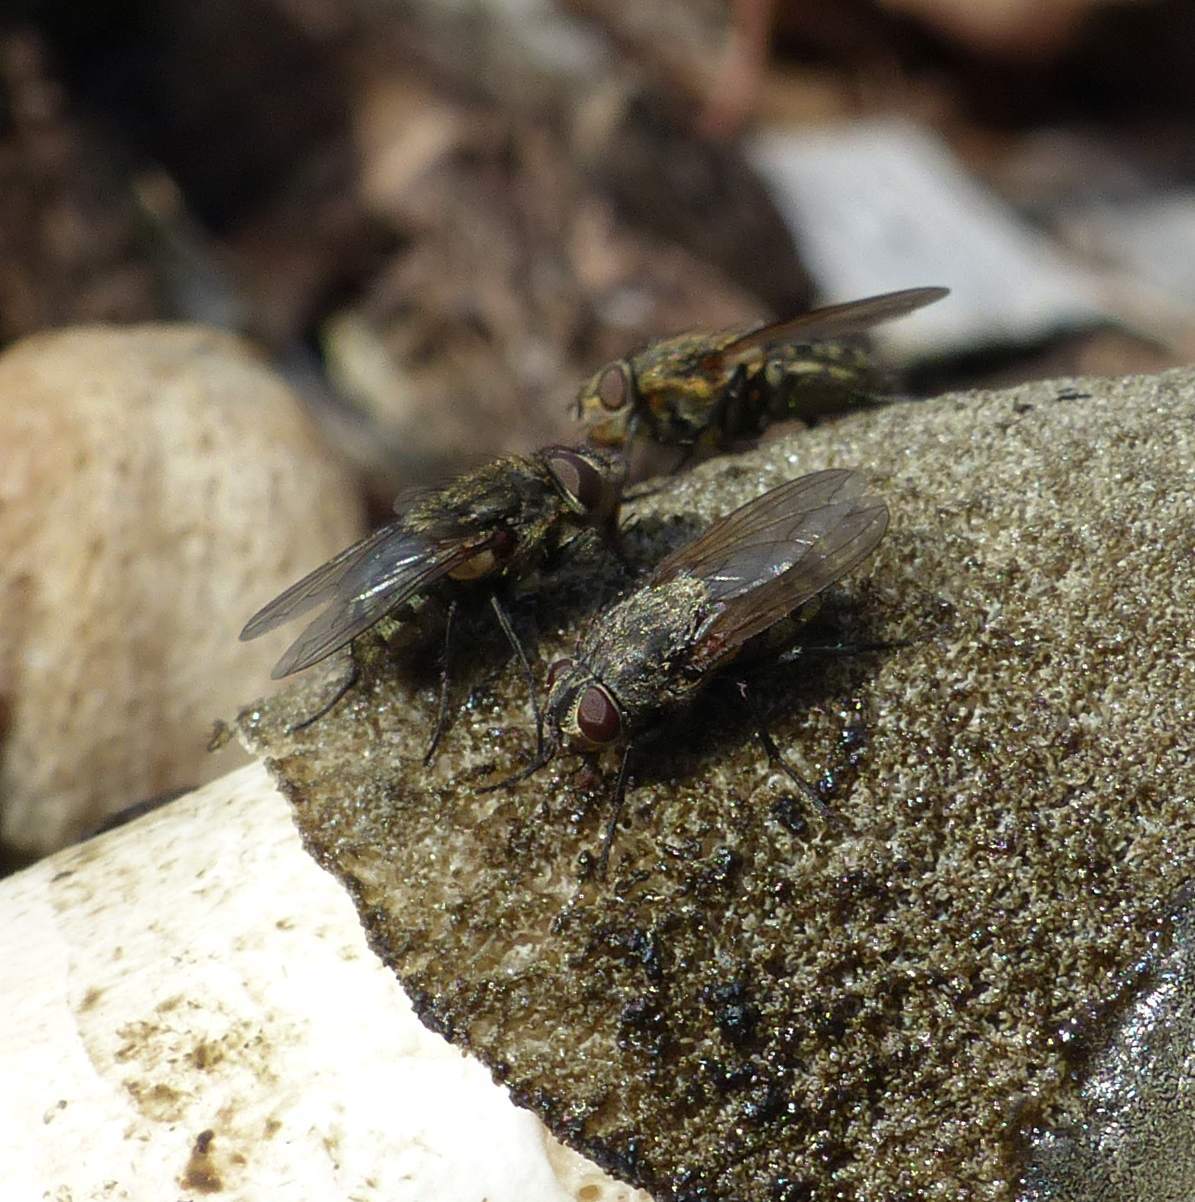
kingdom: Animalia
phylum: Arthropoda
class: Insecta
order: Diptera
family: Polleniidae
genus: Pollenia
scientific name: Pollenia
